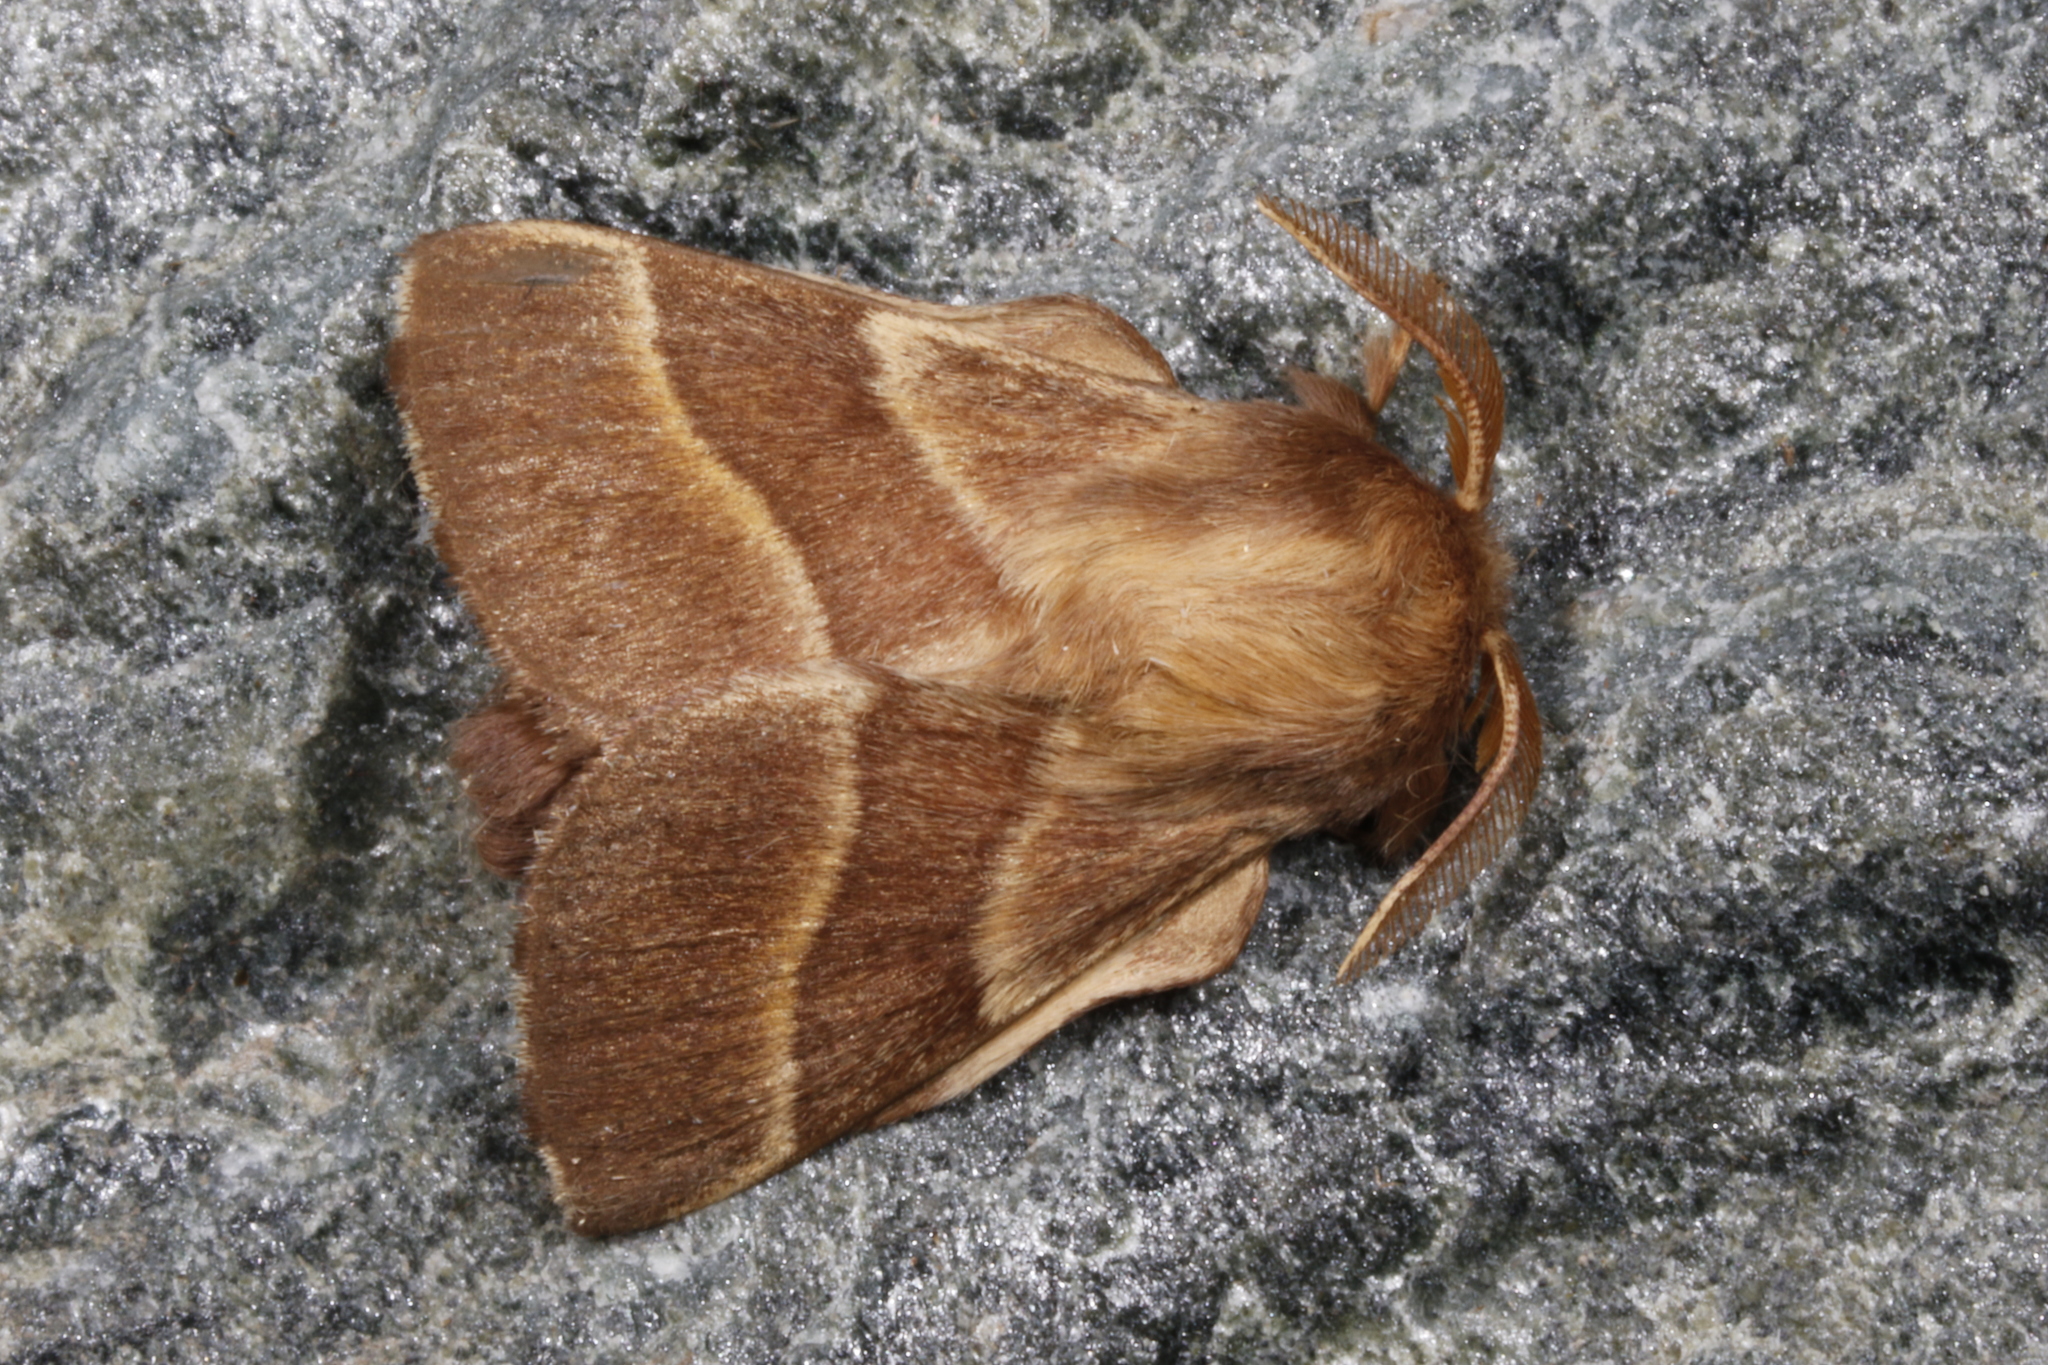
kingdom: Animalia
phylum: Arthropoda
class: Insecta
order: Lepidoptera
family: Lasiocampidae
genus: Malacosoma
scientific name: Malacosoma neustria
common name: The lackey
